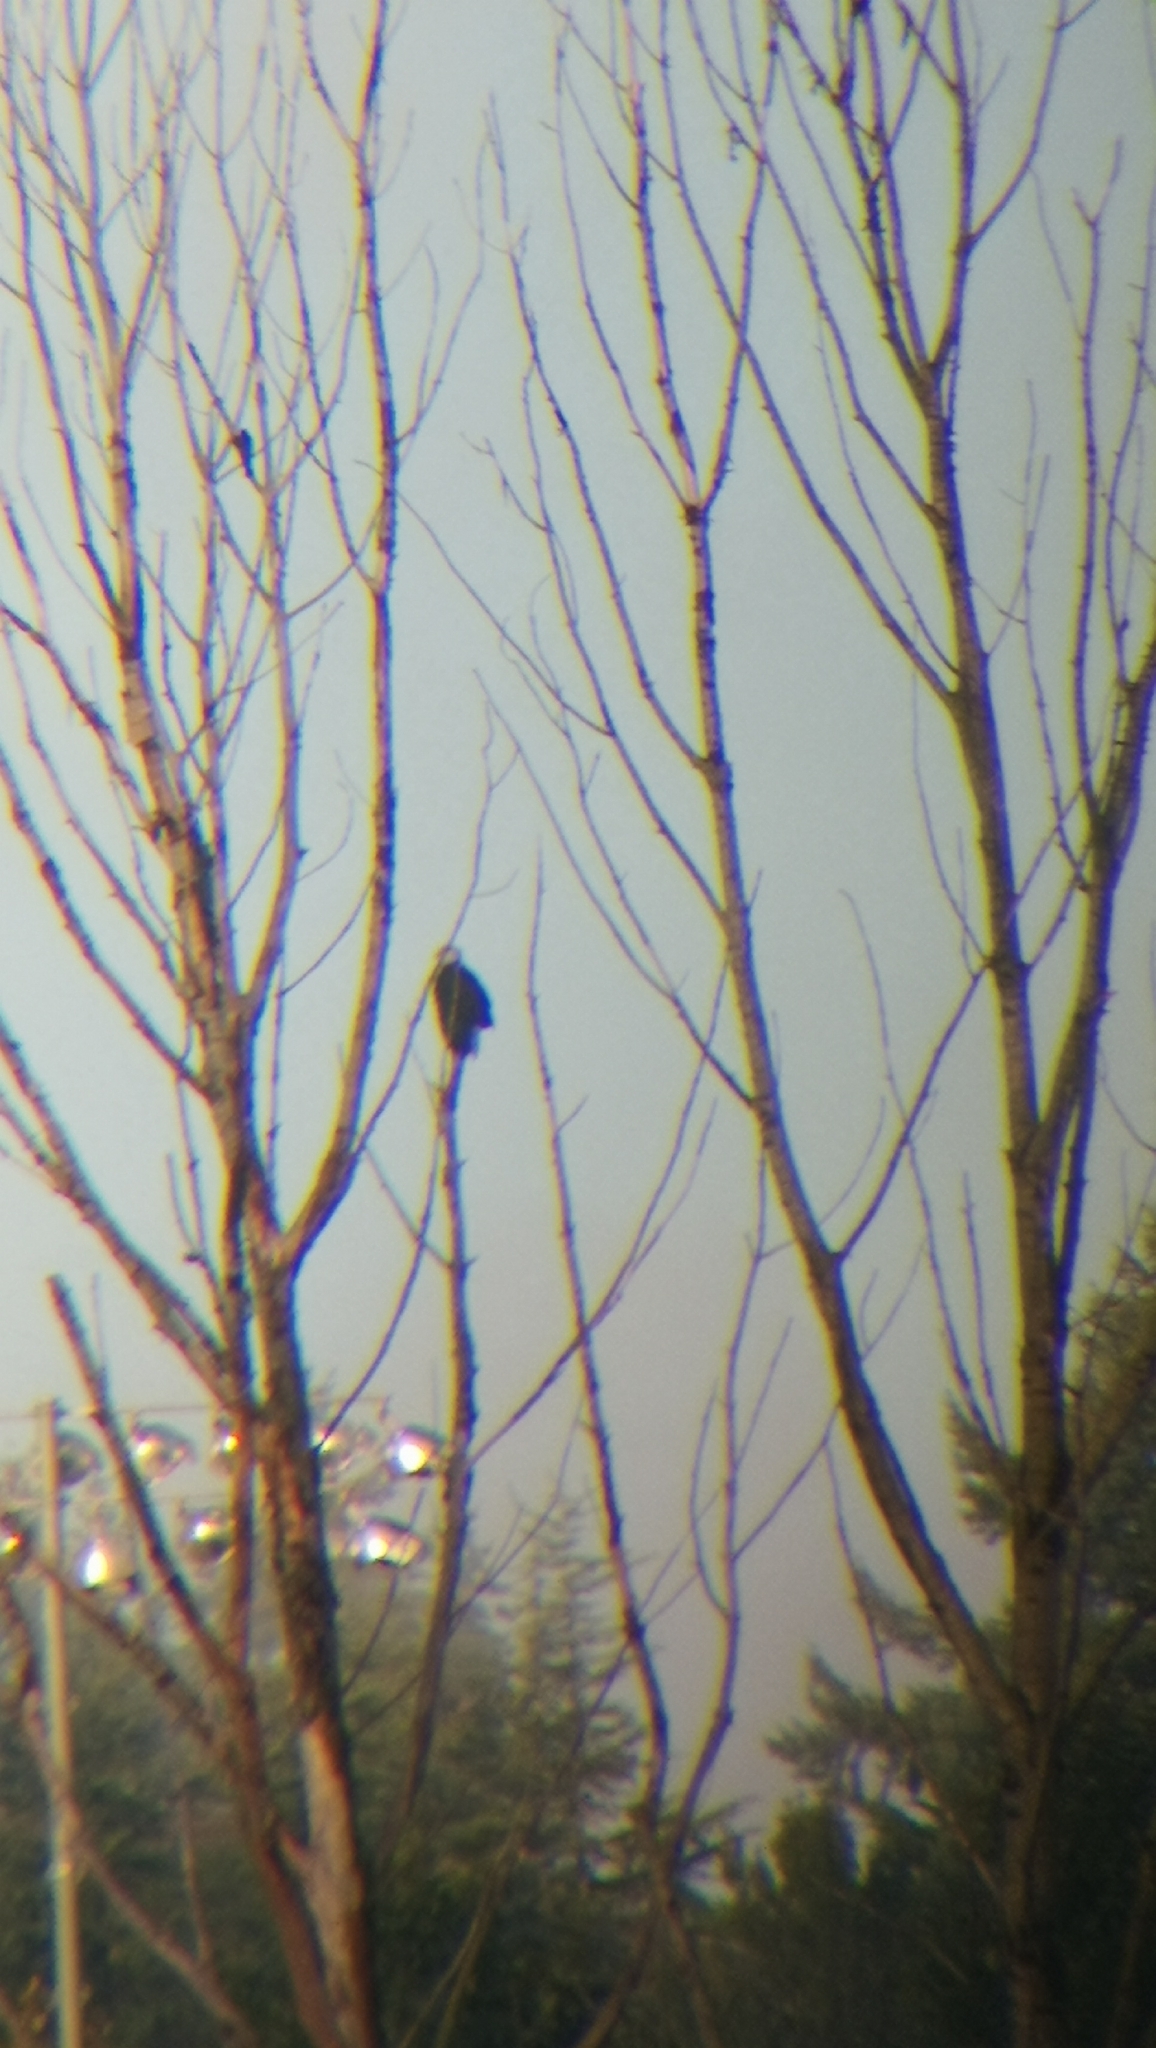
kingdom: Animalia
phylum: Chordata
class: Aves
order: Accipitriformes
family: Accipitridae
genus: Haliaeetus
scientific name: Haliaeetus leucocephalus
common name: Bald eagle
